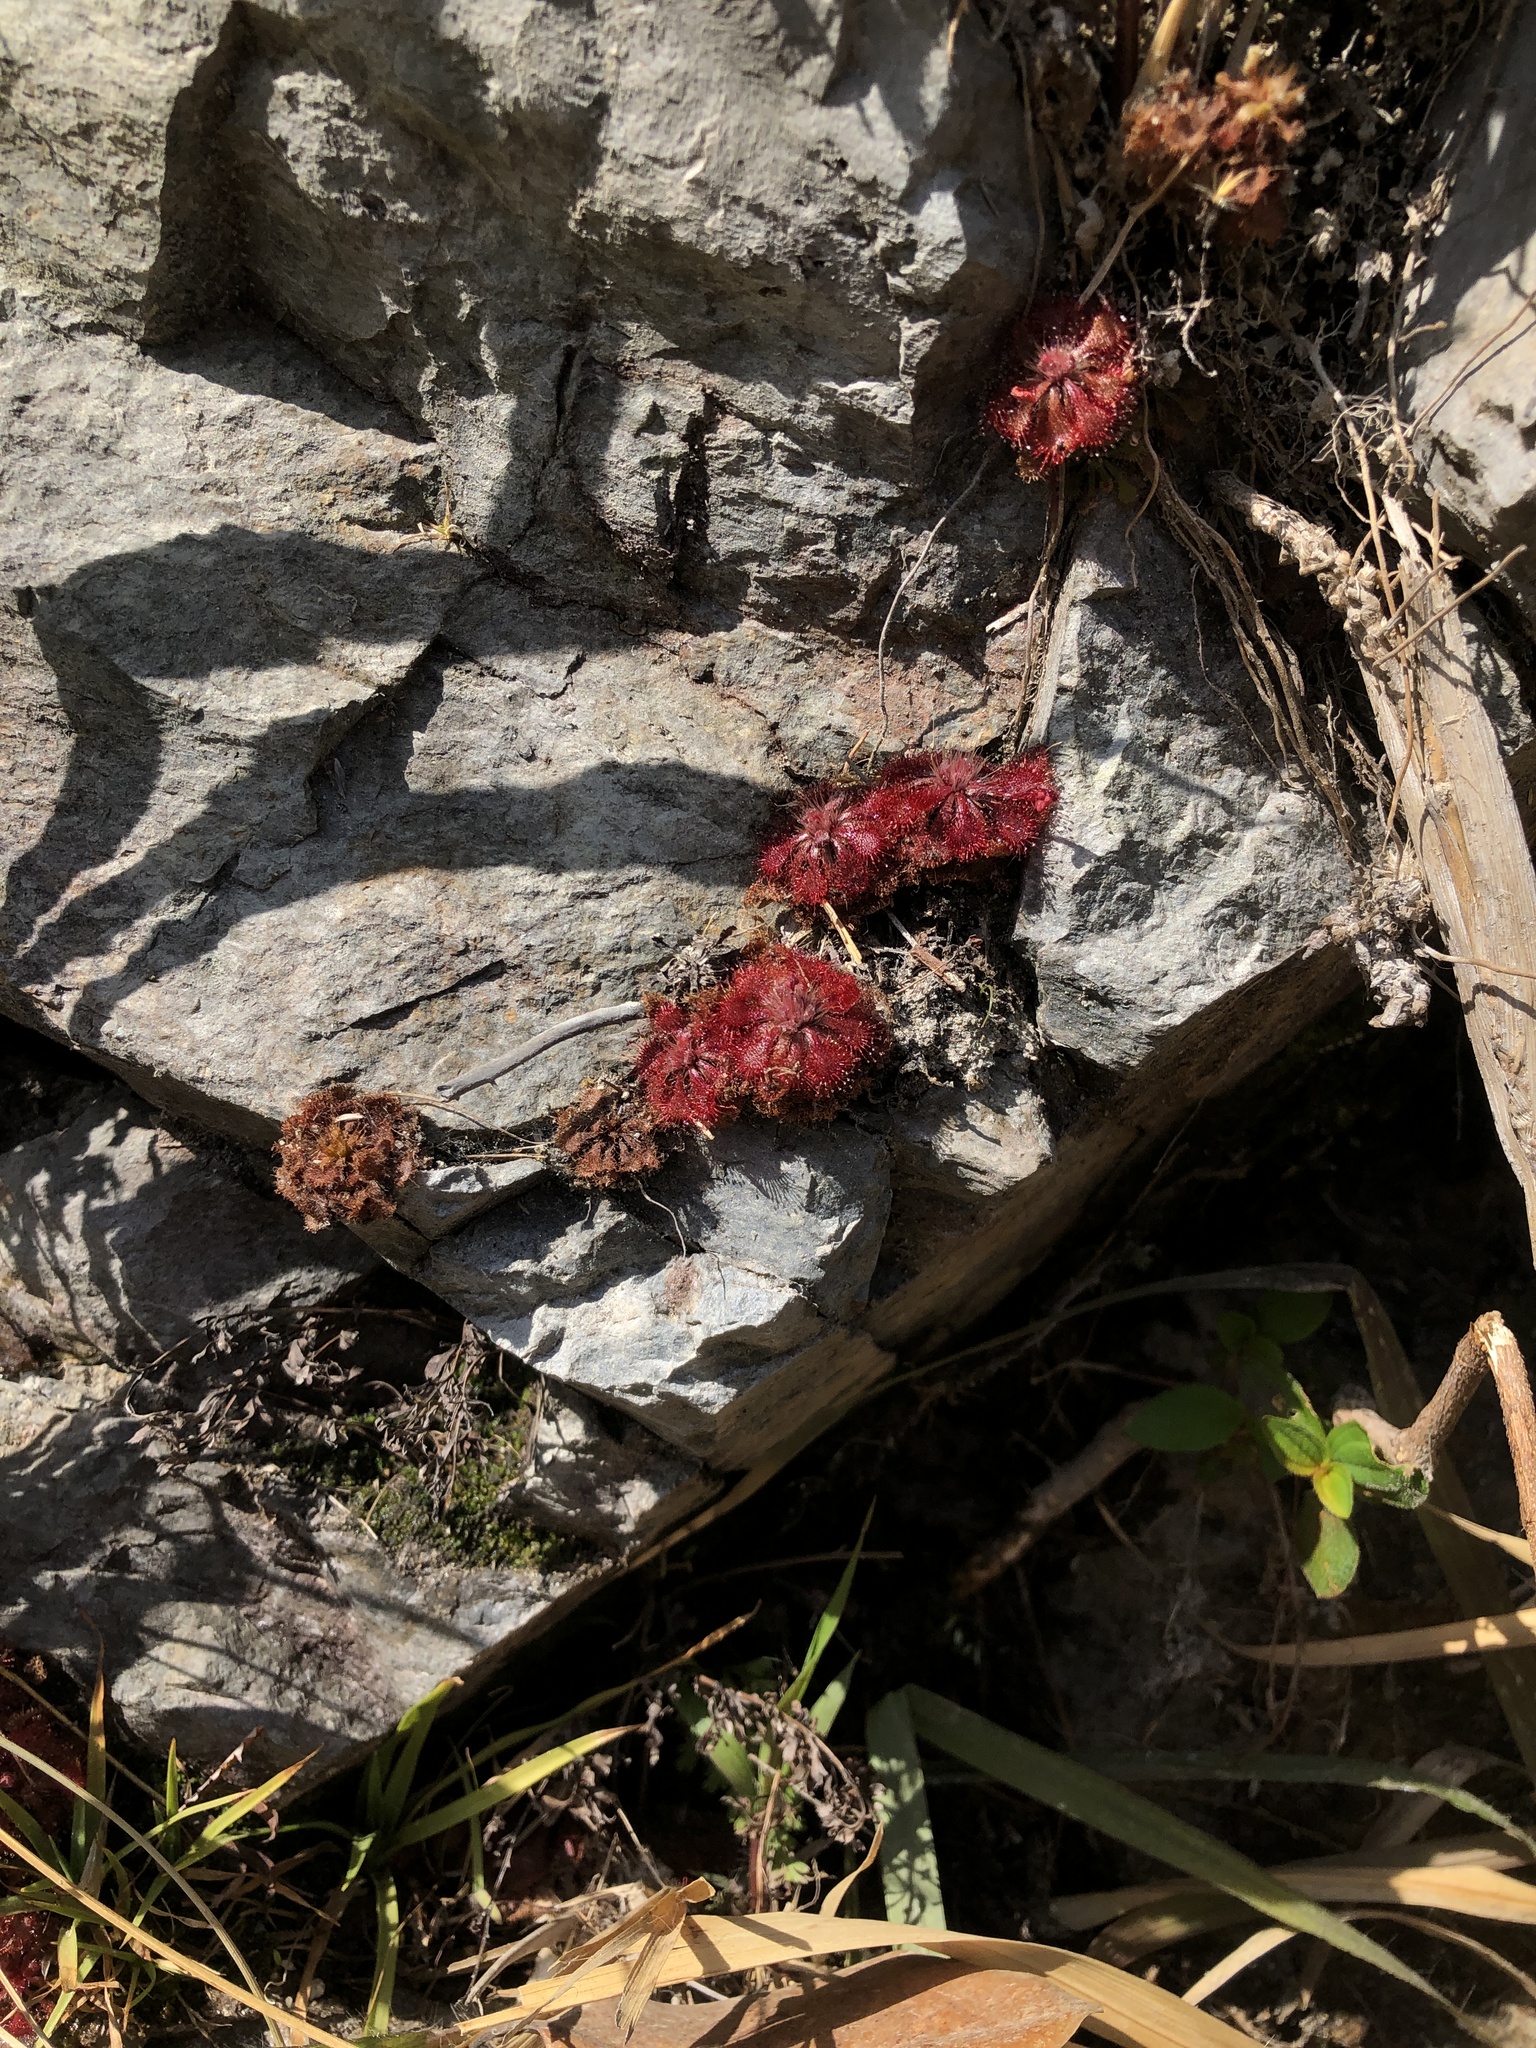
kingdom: Plantae
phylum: Tracheophyta
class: Magnoliopsida
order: Caryophyllales
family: Droseraceae
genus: Drosera
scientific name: Drosera spatulata
